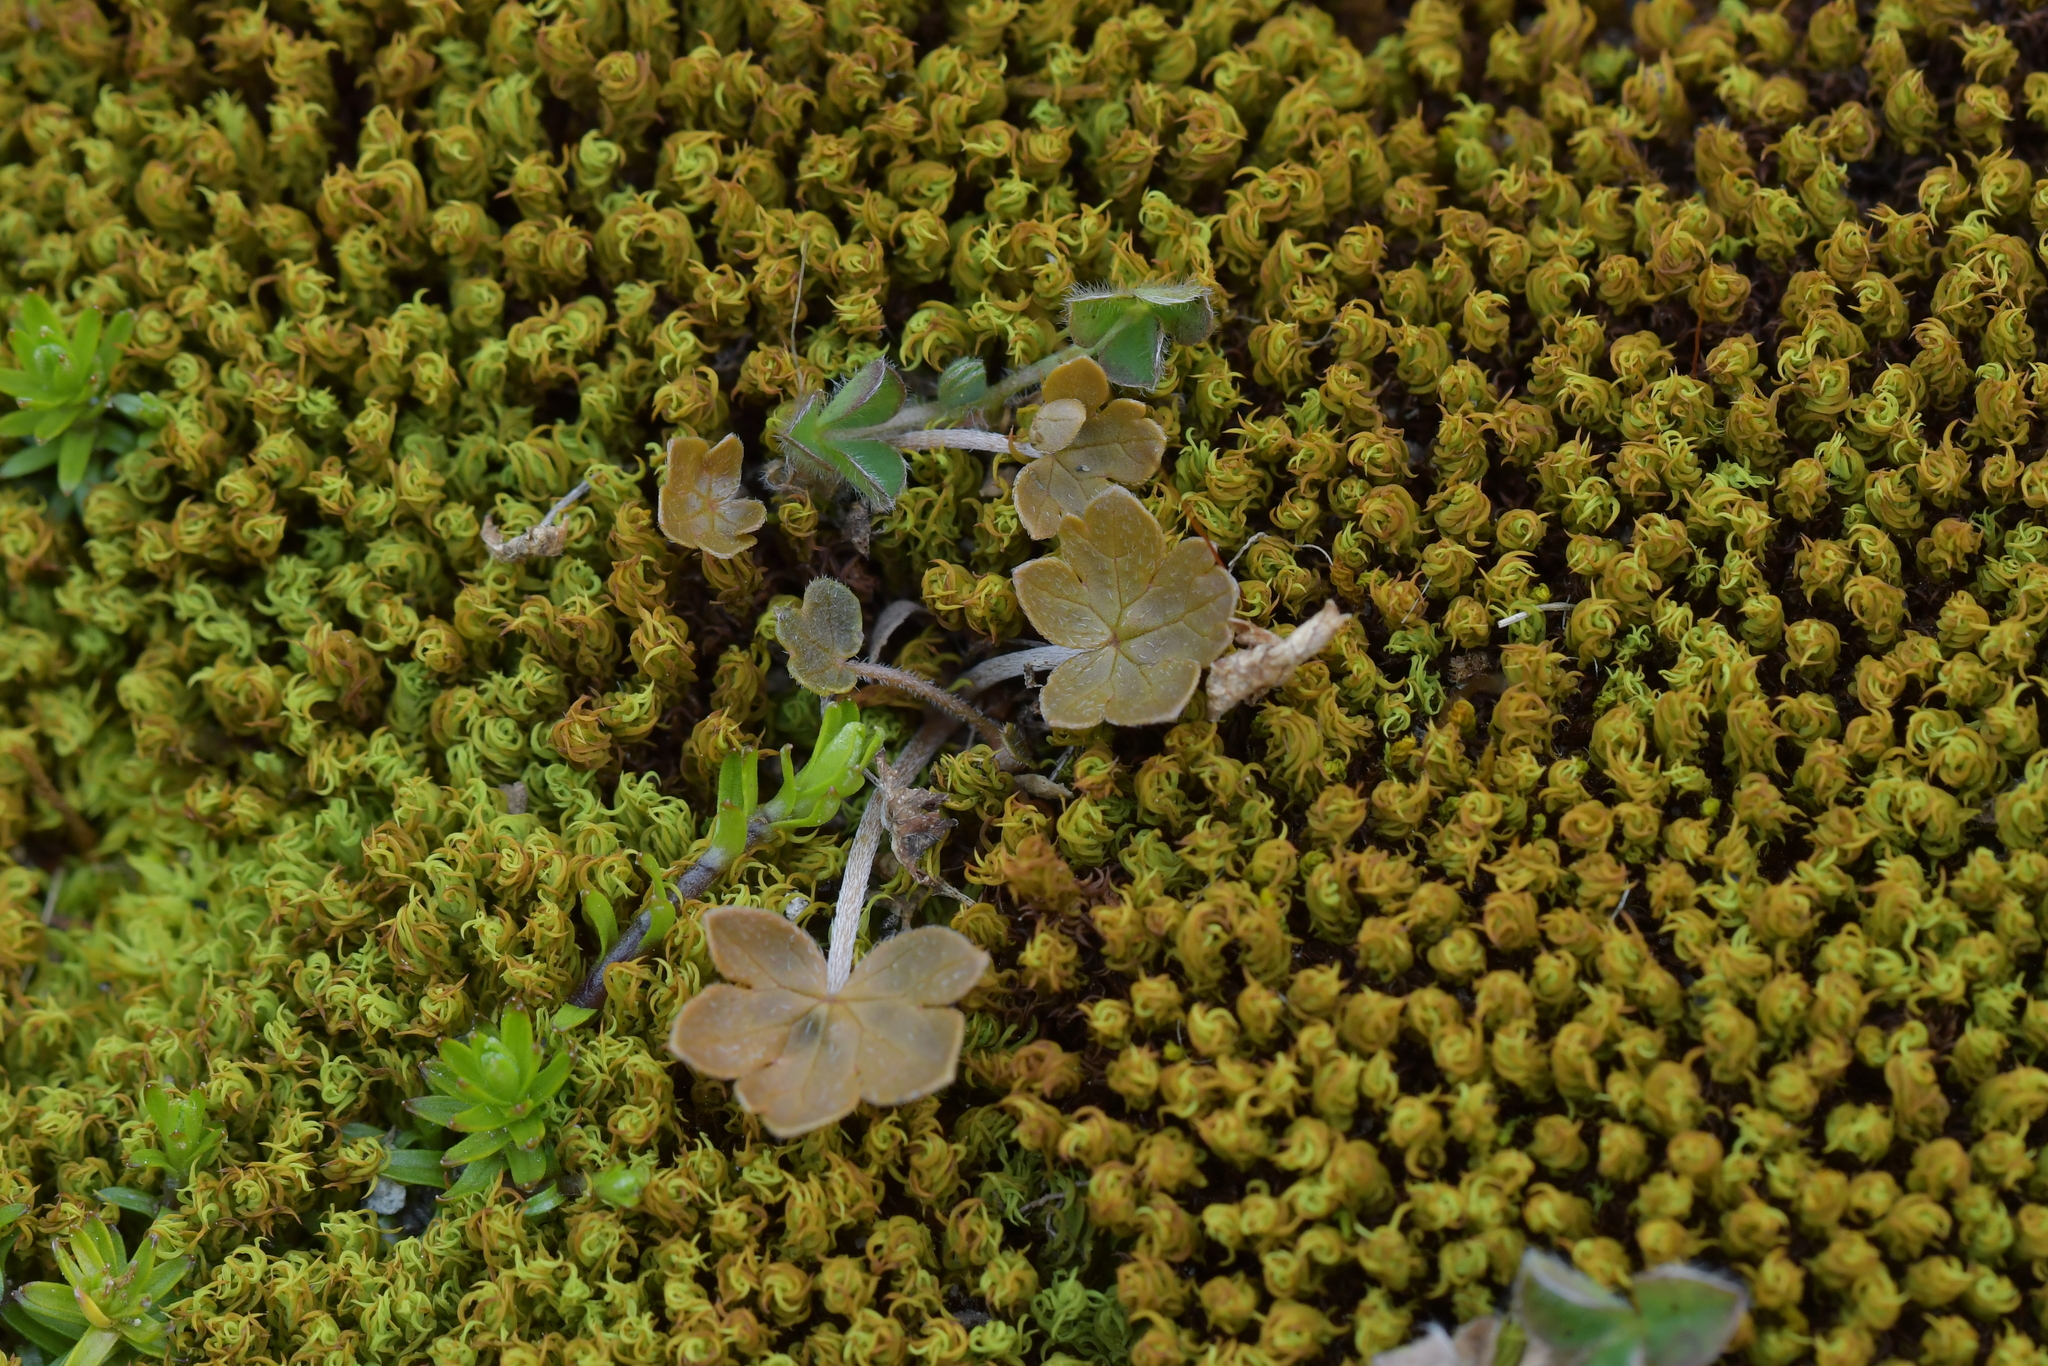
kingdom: Plantae
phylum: Tracheophyta
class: Magnoliopsida
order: Geraniales
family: Geraniaceae
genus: Geranium
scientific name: Geranium brevicaule
